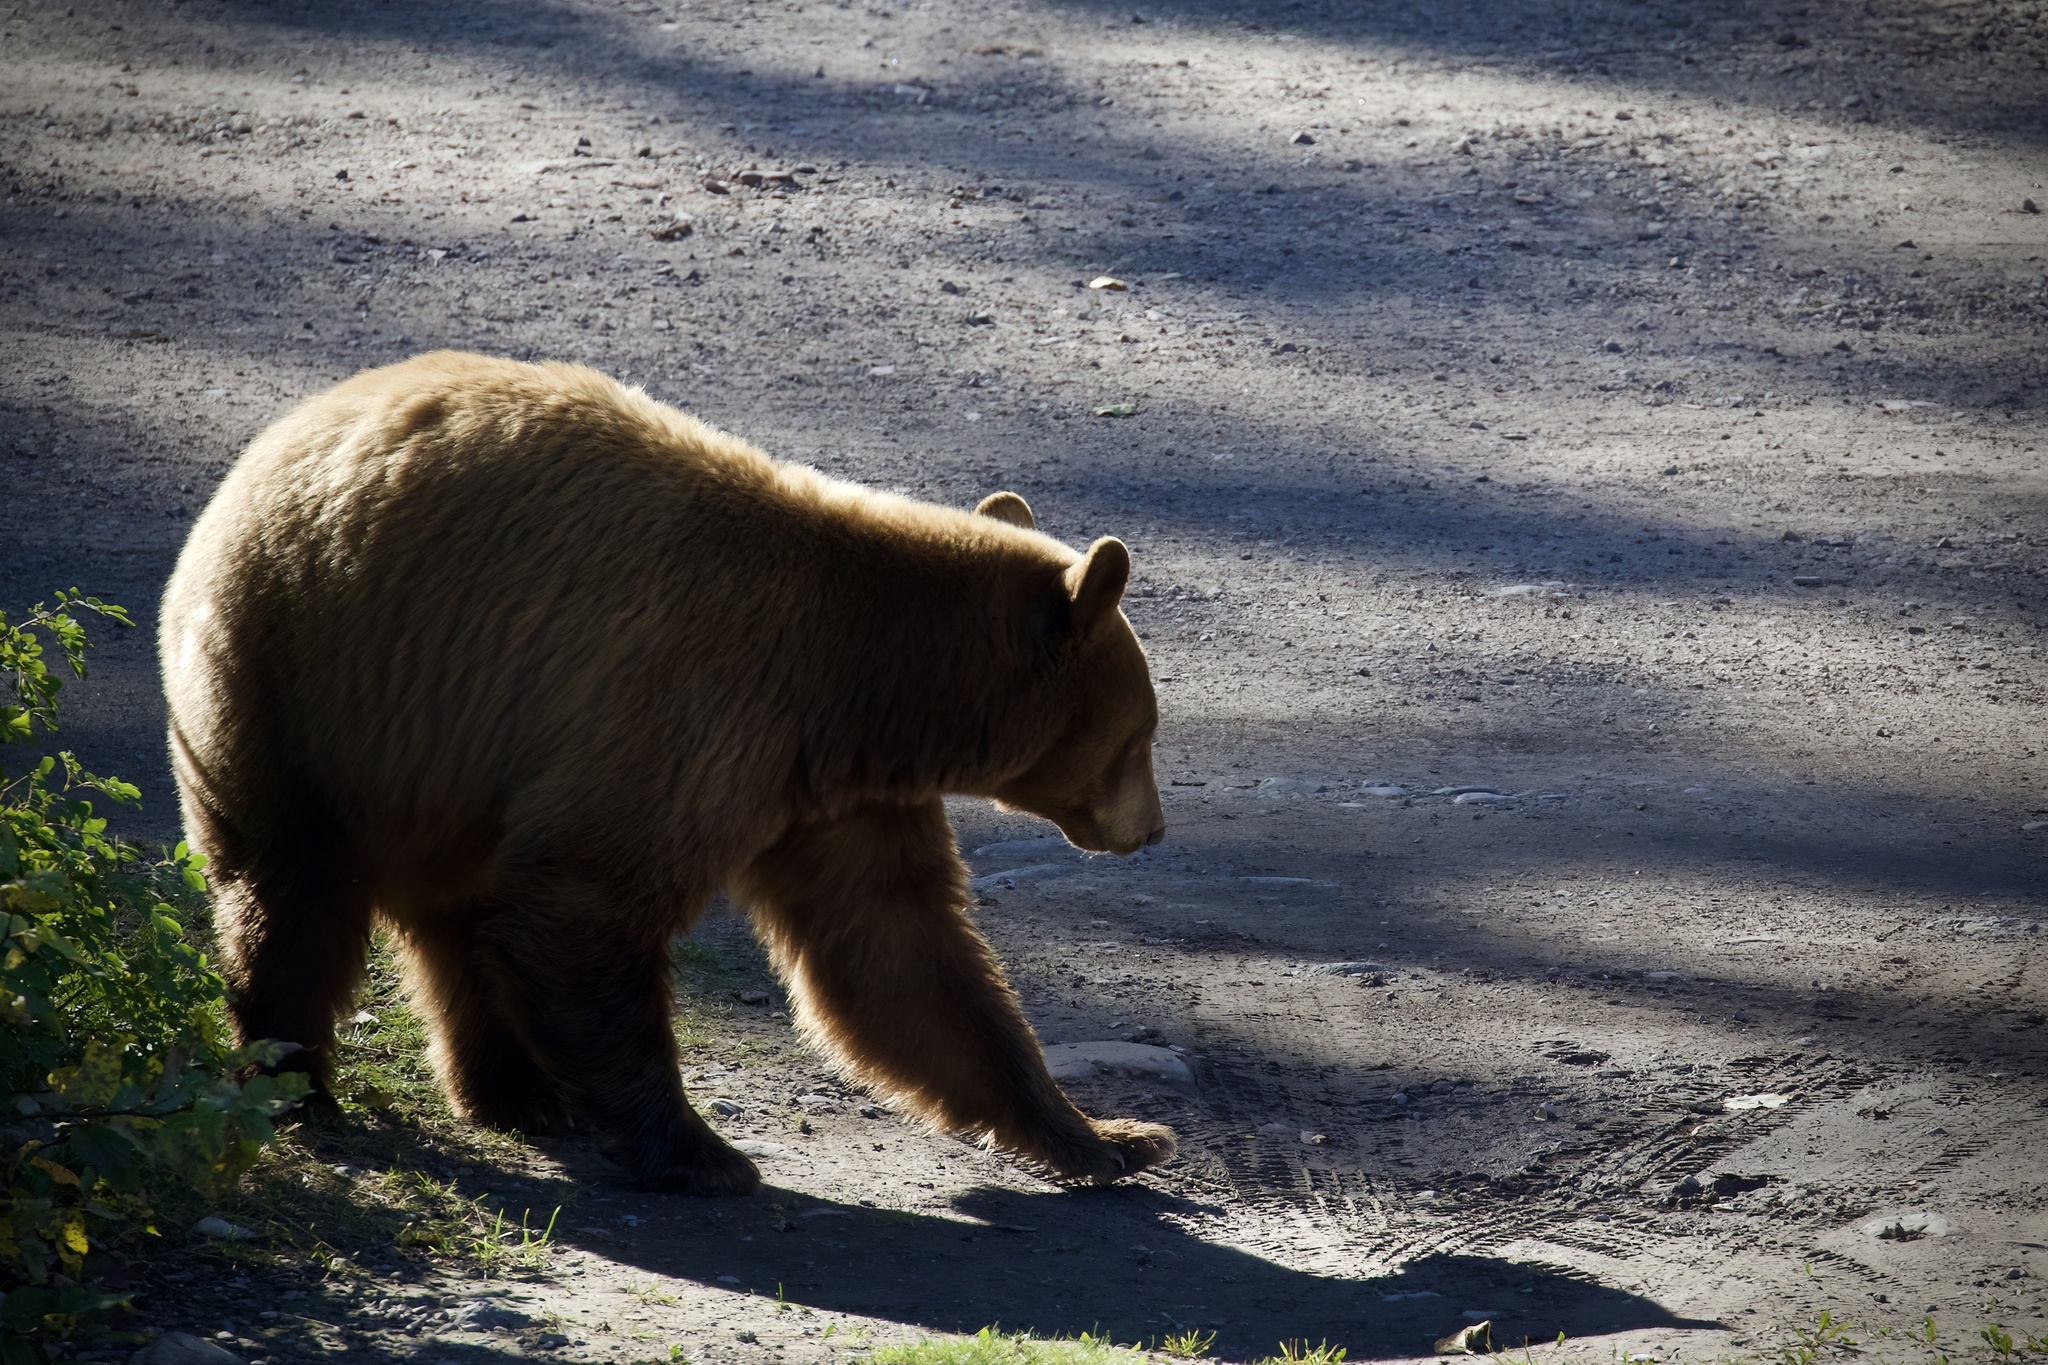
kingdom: Animalia
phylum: Chordata
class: Mammalia
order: Carnivora
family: Ursidae
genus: Ursus
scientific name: Ursus americanus
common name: American black bear
